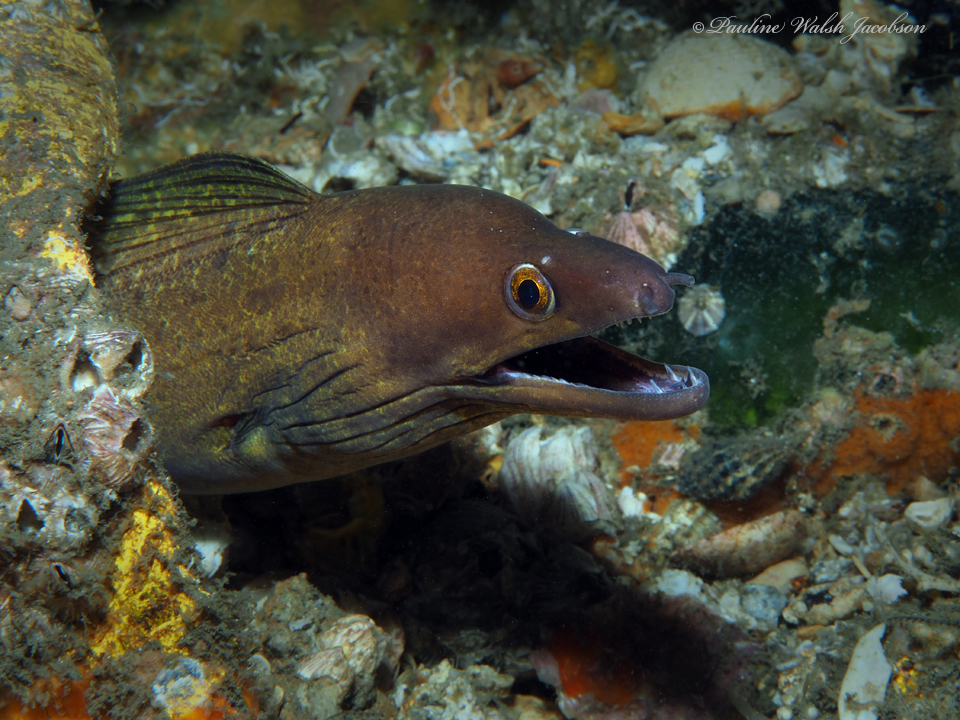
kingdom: Animalia
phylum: Chordata
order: Anguilliformes
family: Muraenidae
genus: Gymnothorax
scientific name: Gymnothorax vicinus
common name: Purplemouth moray
